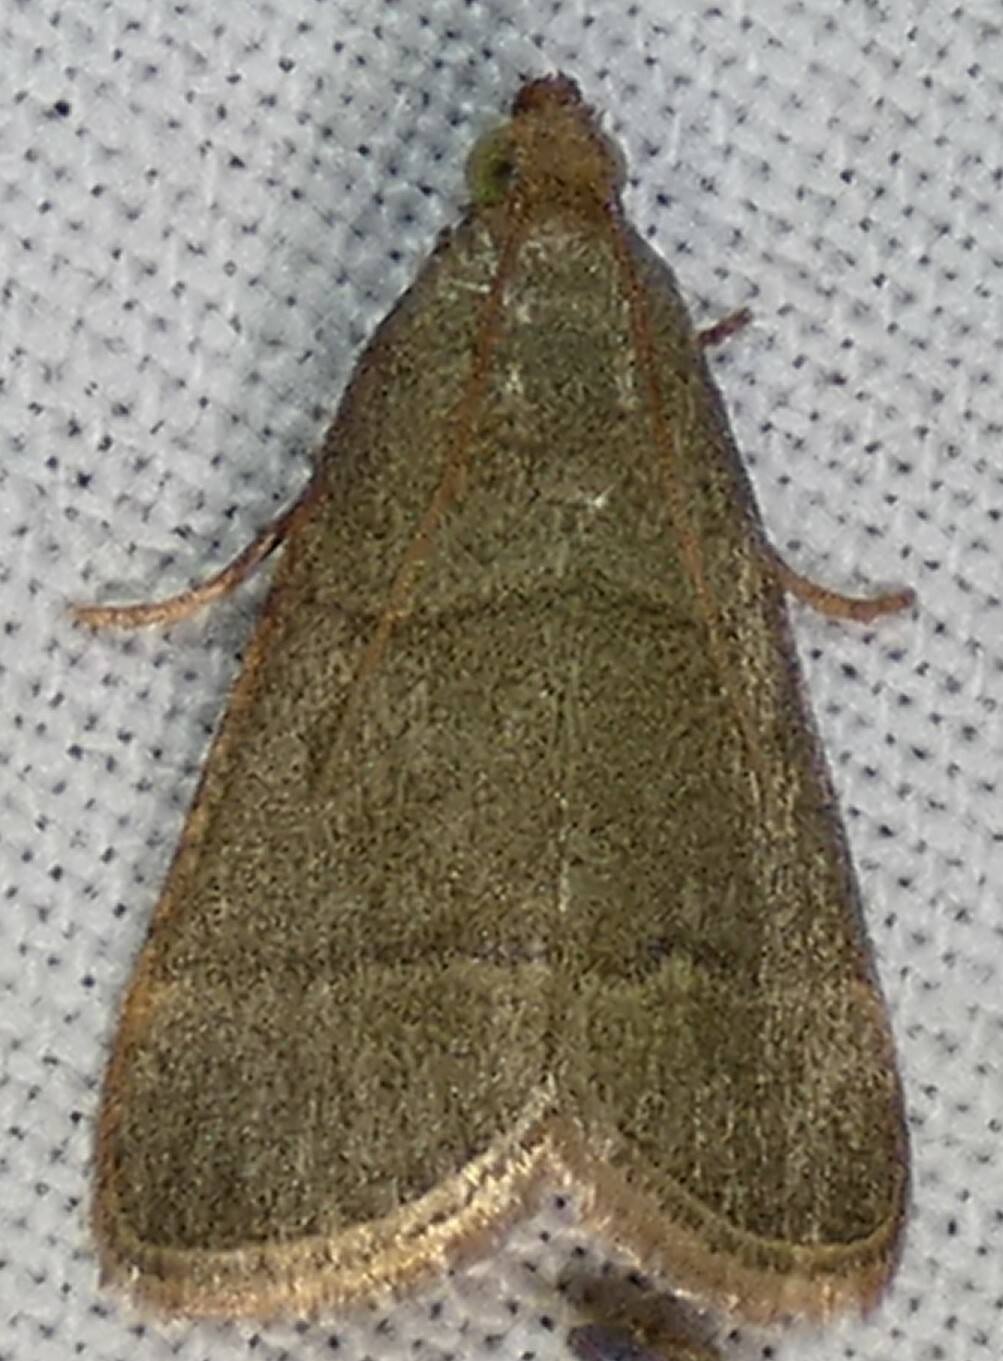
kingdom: Animalia
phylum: Arthropoda
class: Insecta
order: Lepidoptera
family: Pyralidae
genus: Hypsopygia
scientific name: Hypsopygia nostralis
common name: Southern hayworm moth
